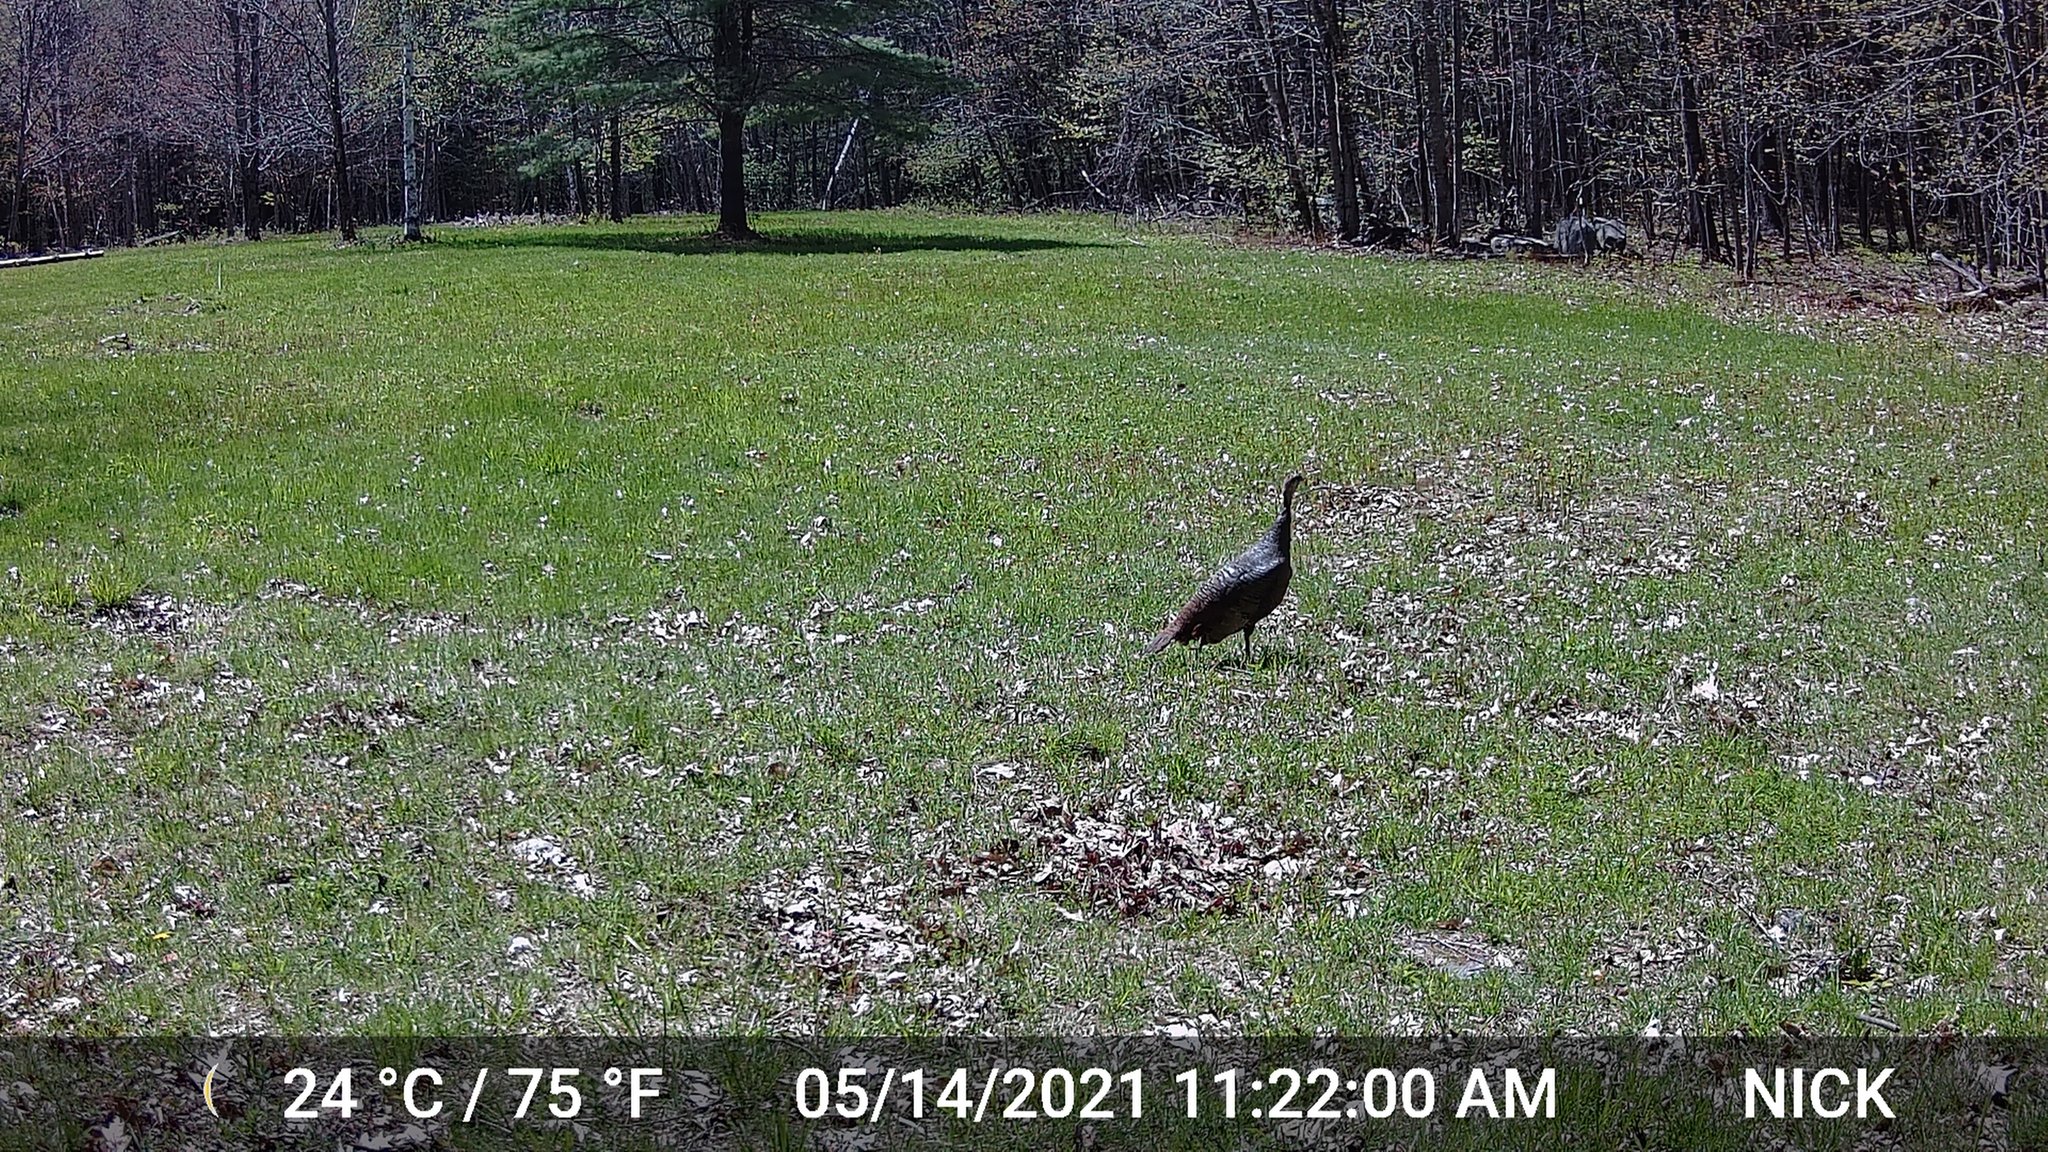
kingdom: Animalia
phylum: Chordata
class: Aves
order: Galliformes
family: Phasianidae
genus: Meleagris
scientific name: Meleagris gallopavo
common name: Wild turkey
